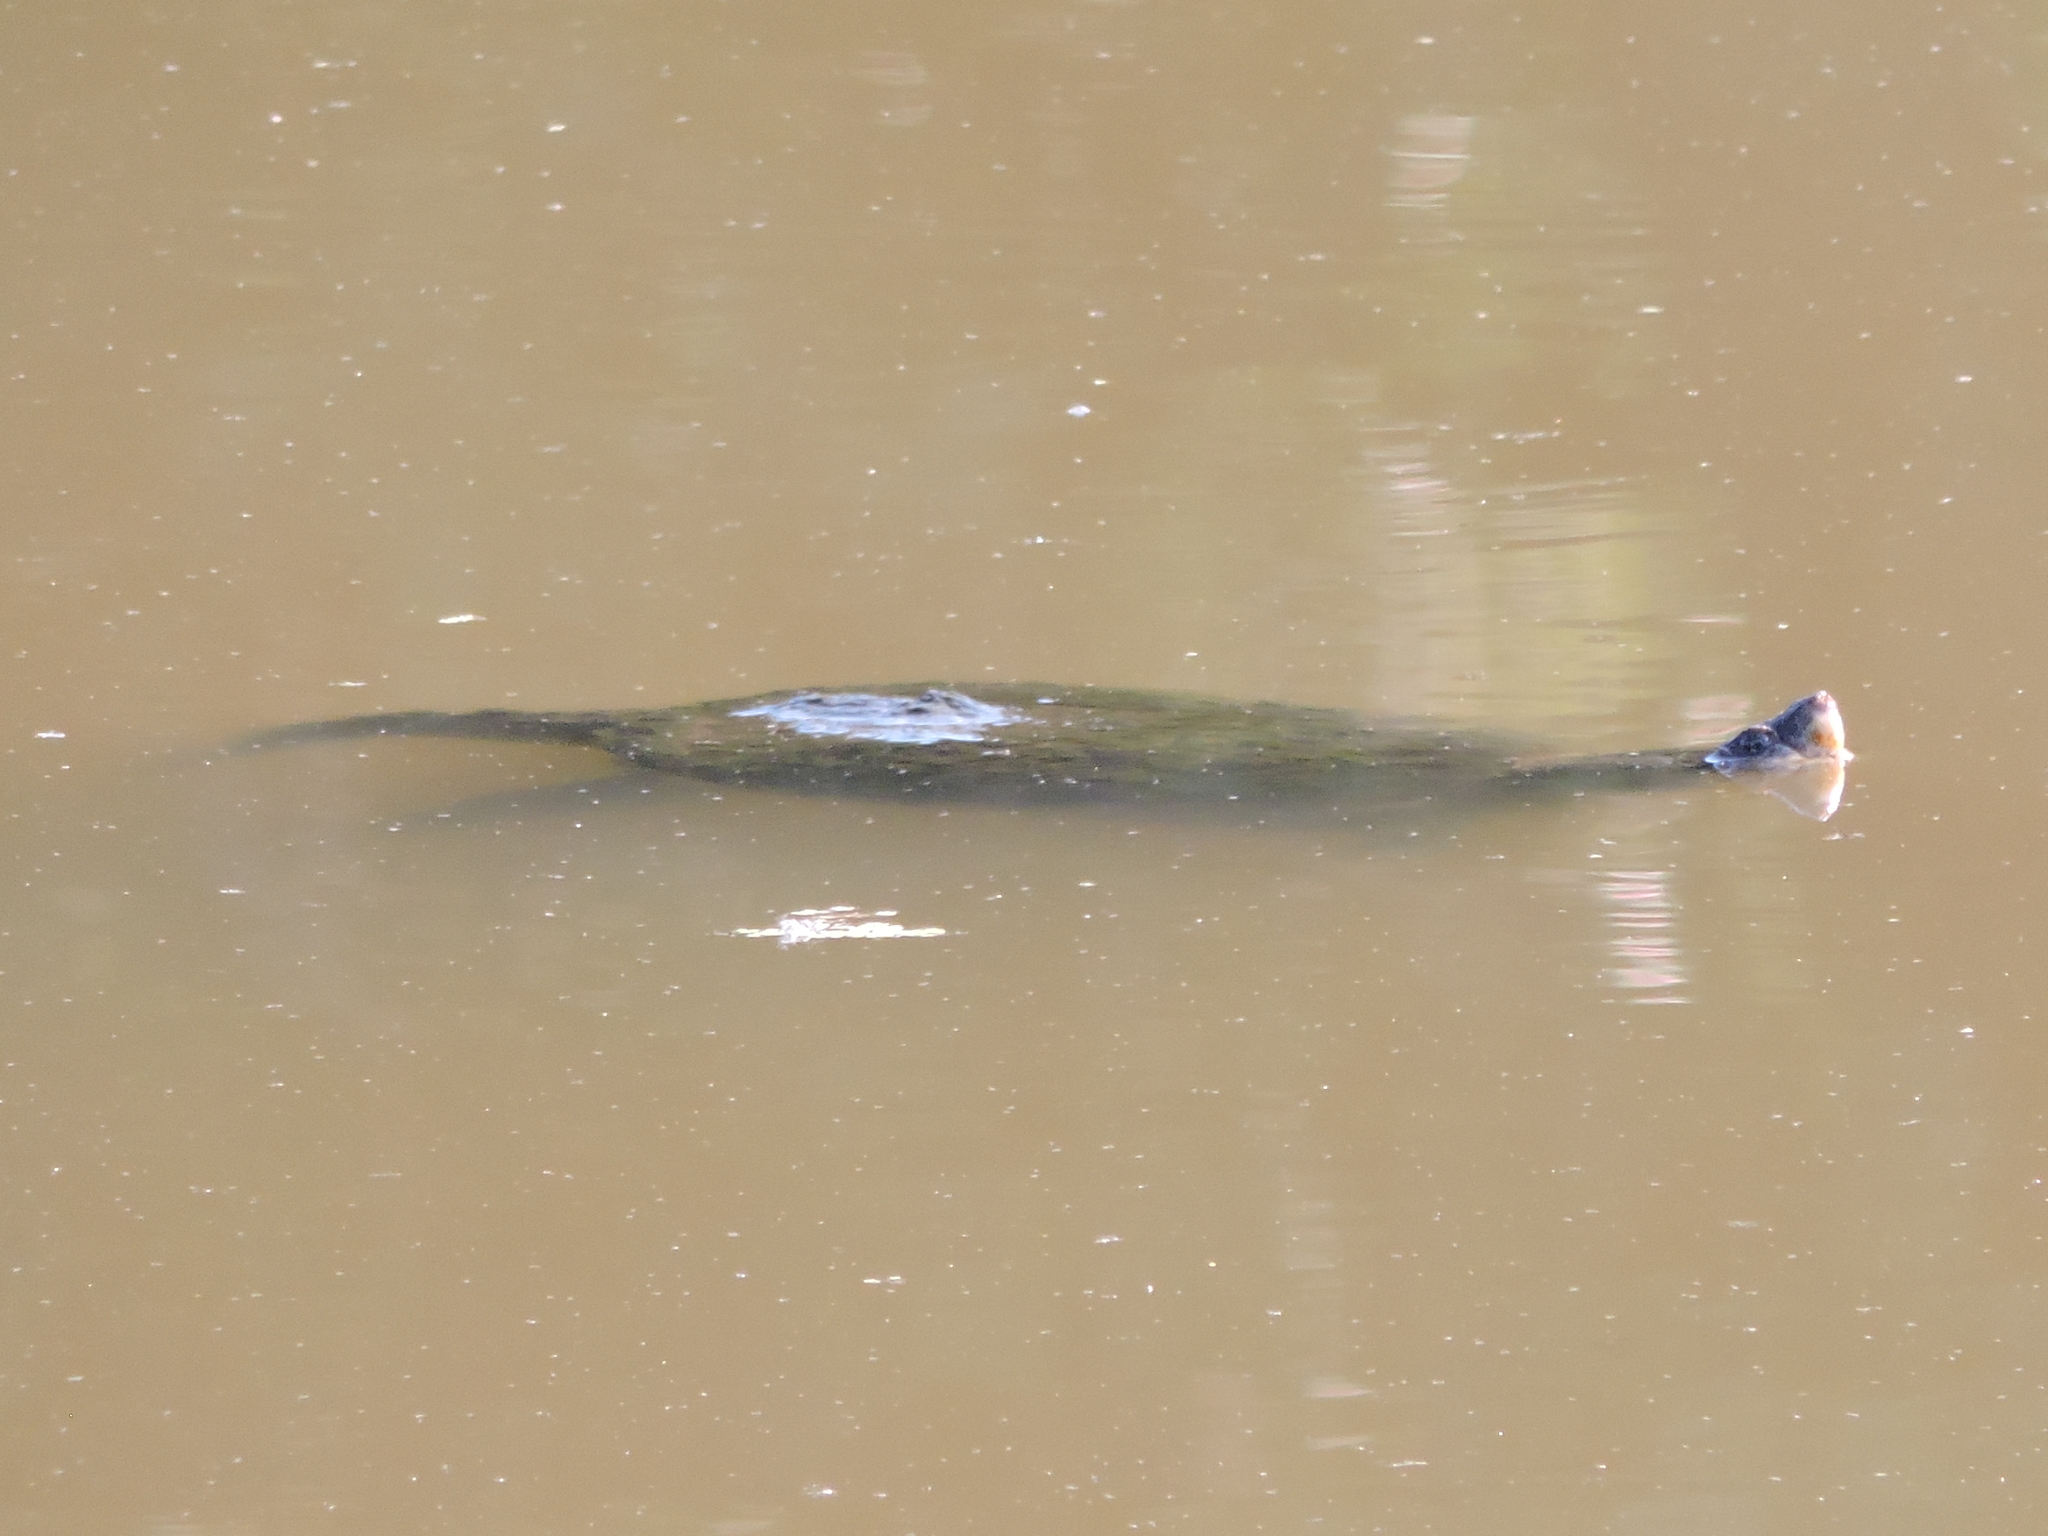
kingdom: Animalia
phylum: Chordata
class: Testudines
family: Chelydridae
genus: Chelydra
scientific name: Chelydra serpentina
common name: Common snapping turtle
